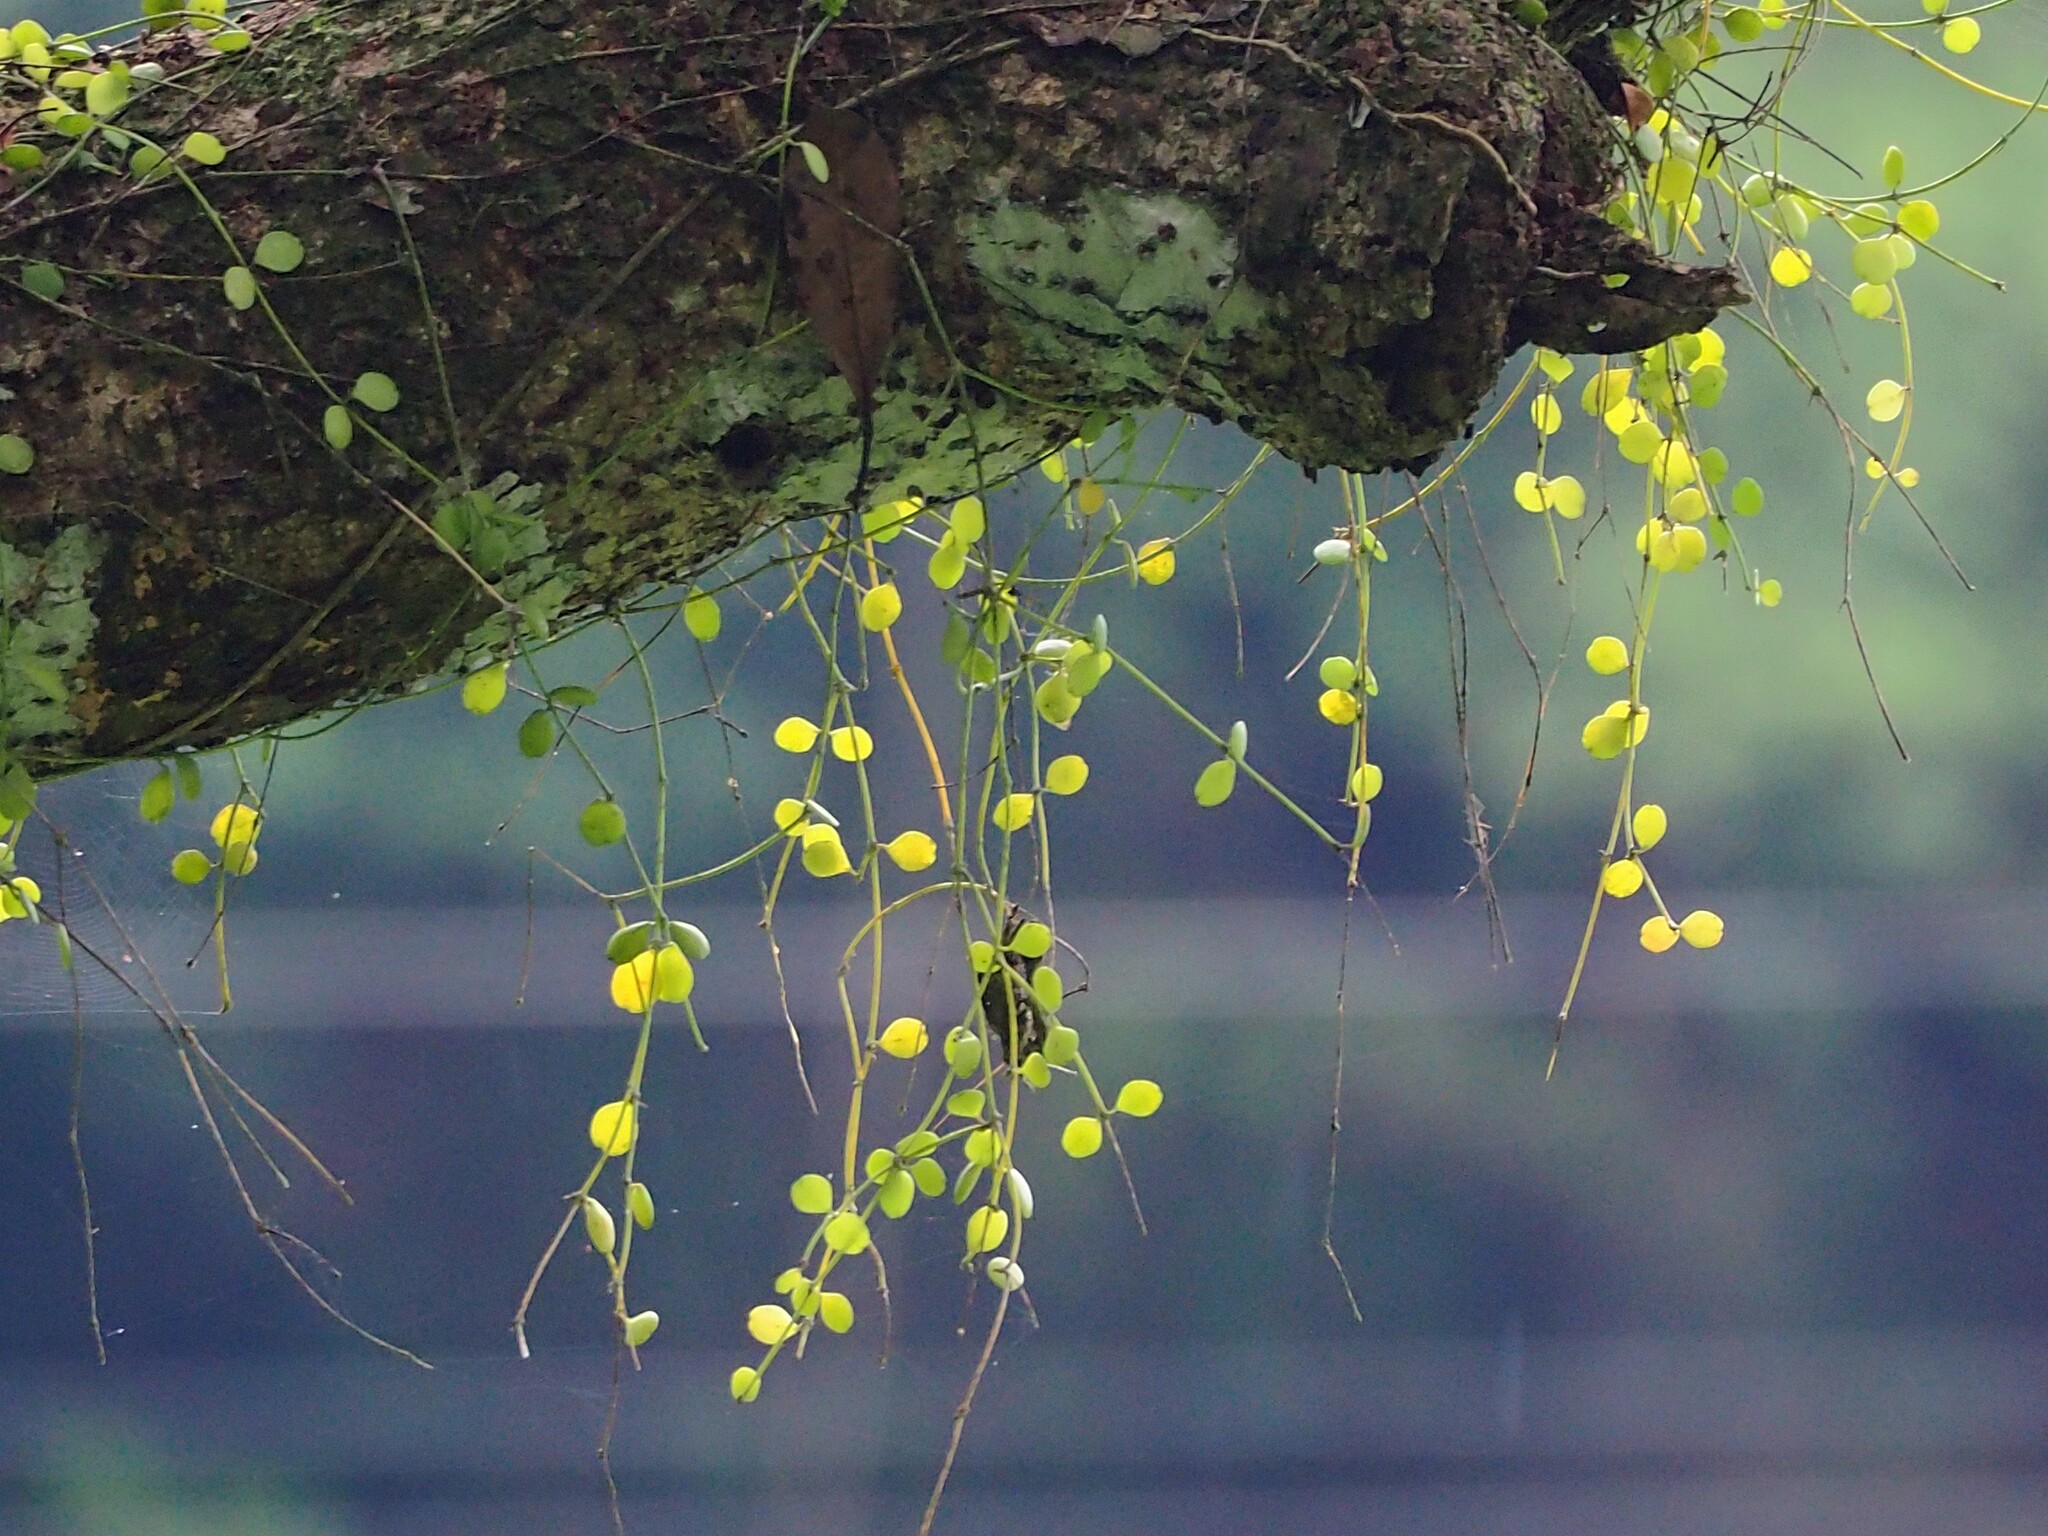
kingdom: Plantae
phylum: Tracheophyta
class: Magnoliopsida
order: Gentianales
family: Apocynaceae
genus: Dischidia
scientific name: Dischidia formosana
